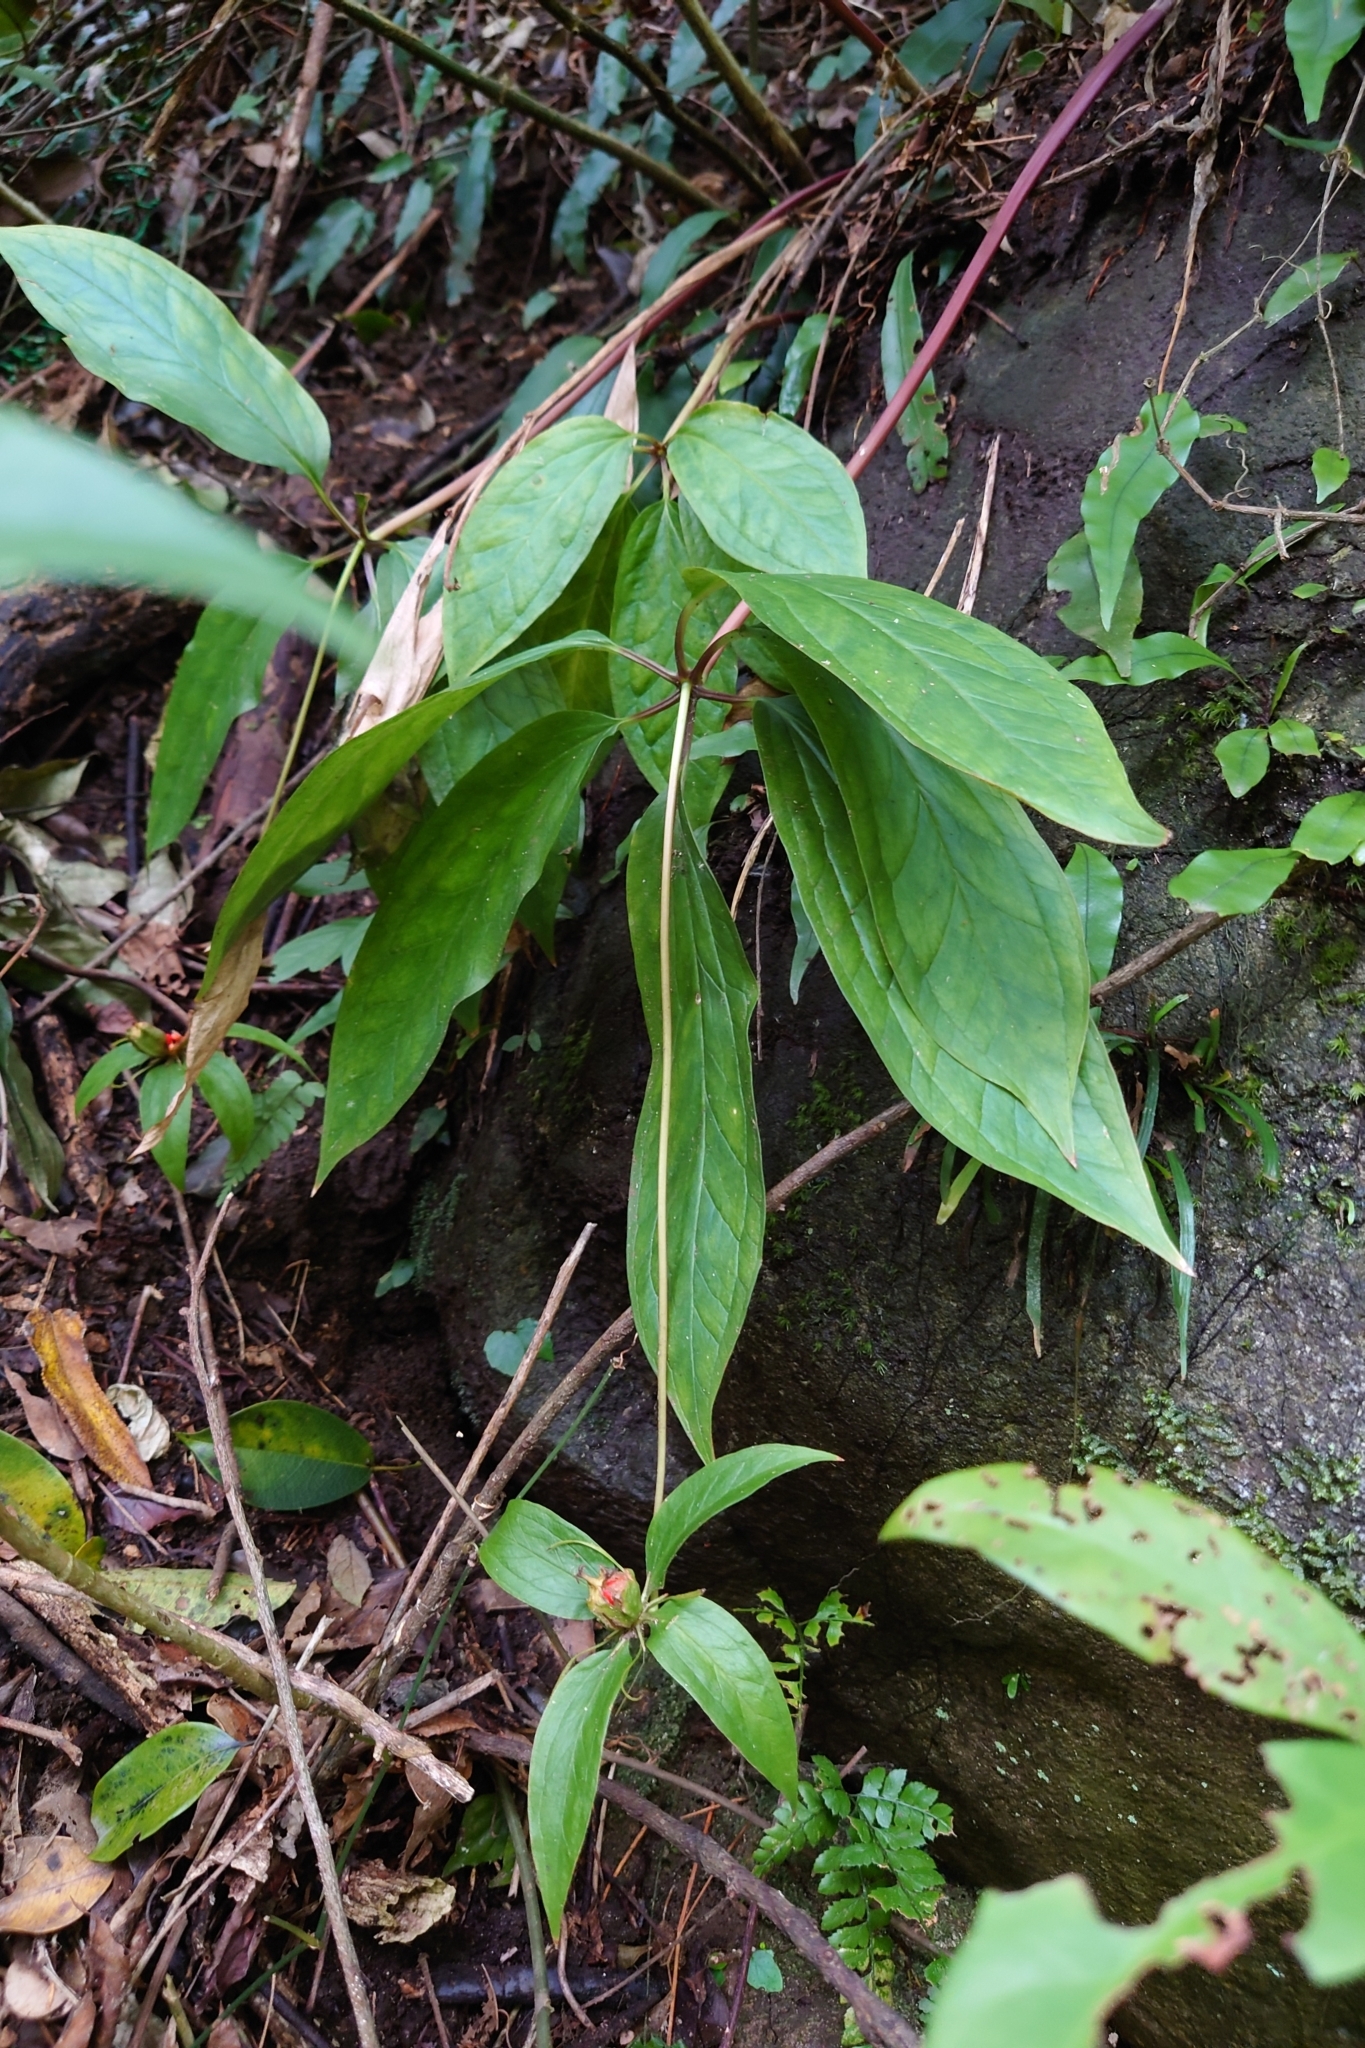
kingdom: Plantae
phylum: Tracheophyta
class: Liliopsida
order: Liliales
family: Melanthiaceae
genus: Paris
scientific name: Paris polyphylla
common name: Love apple
